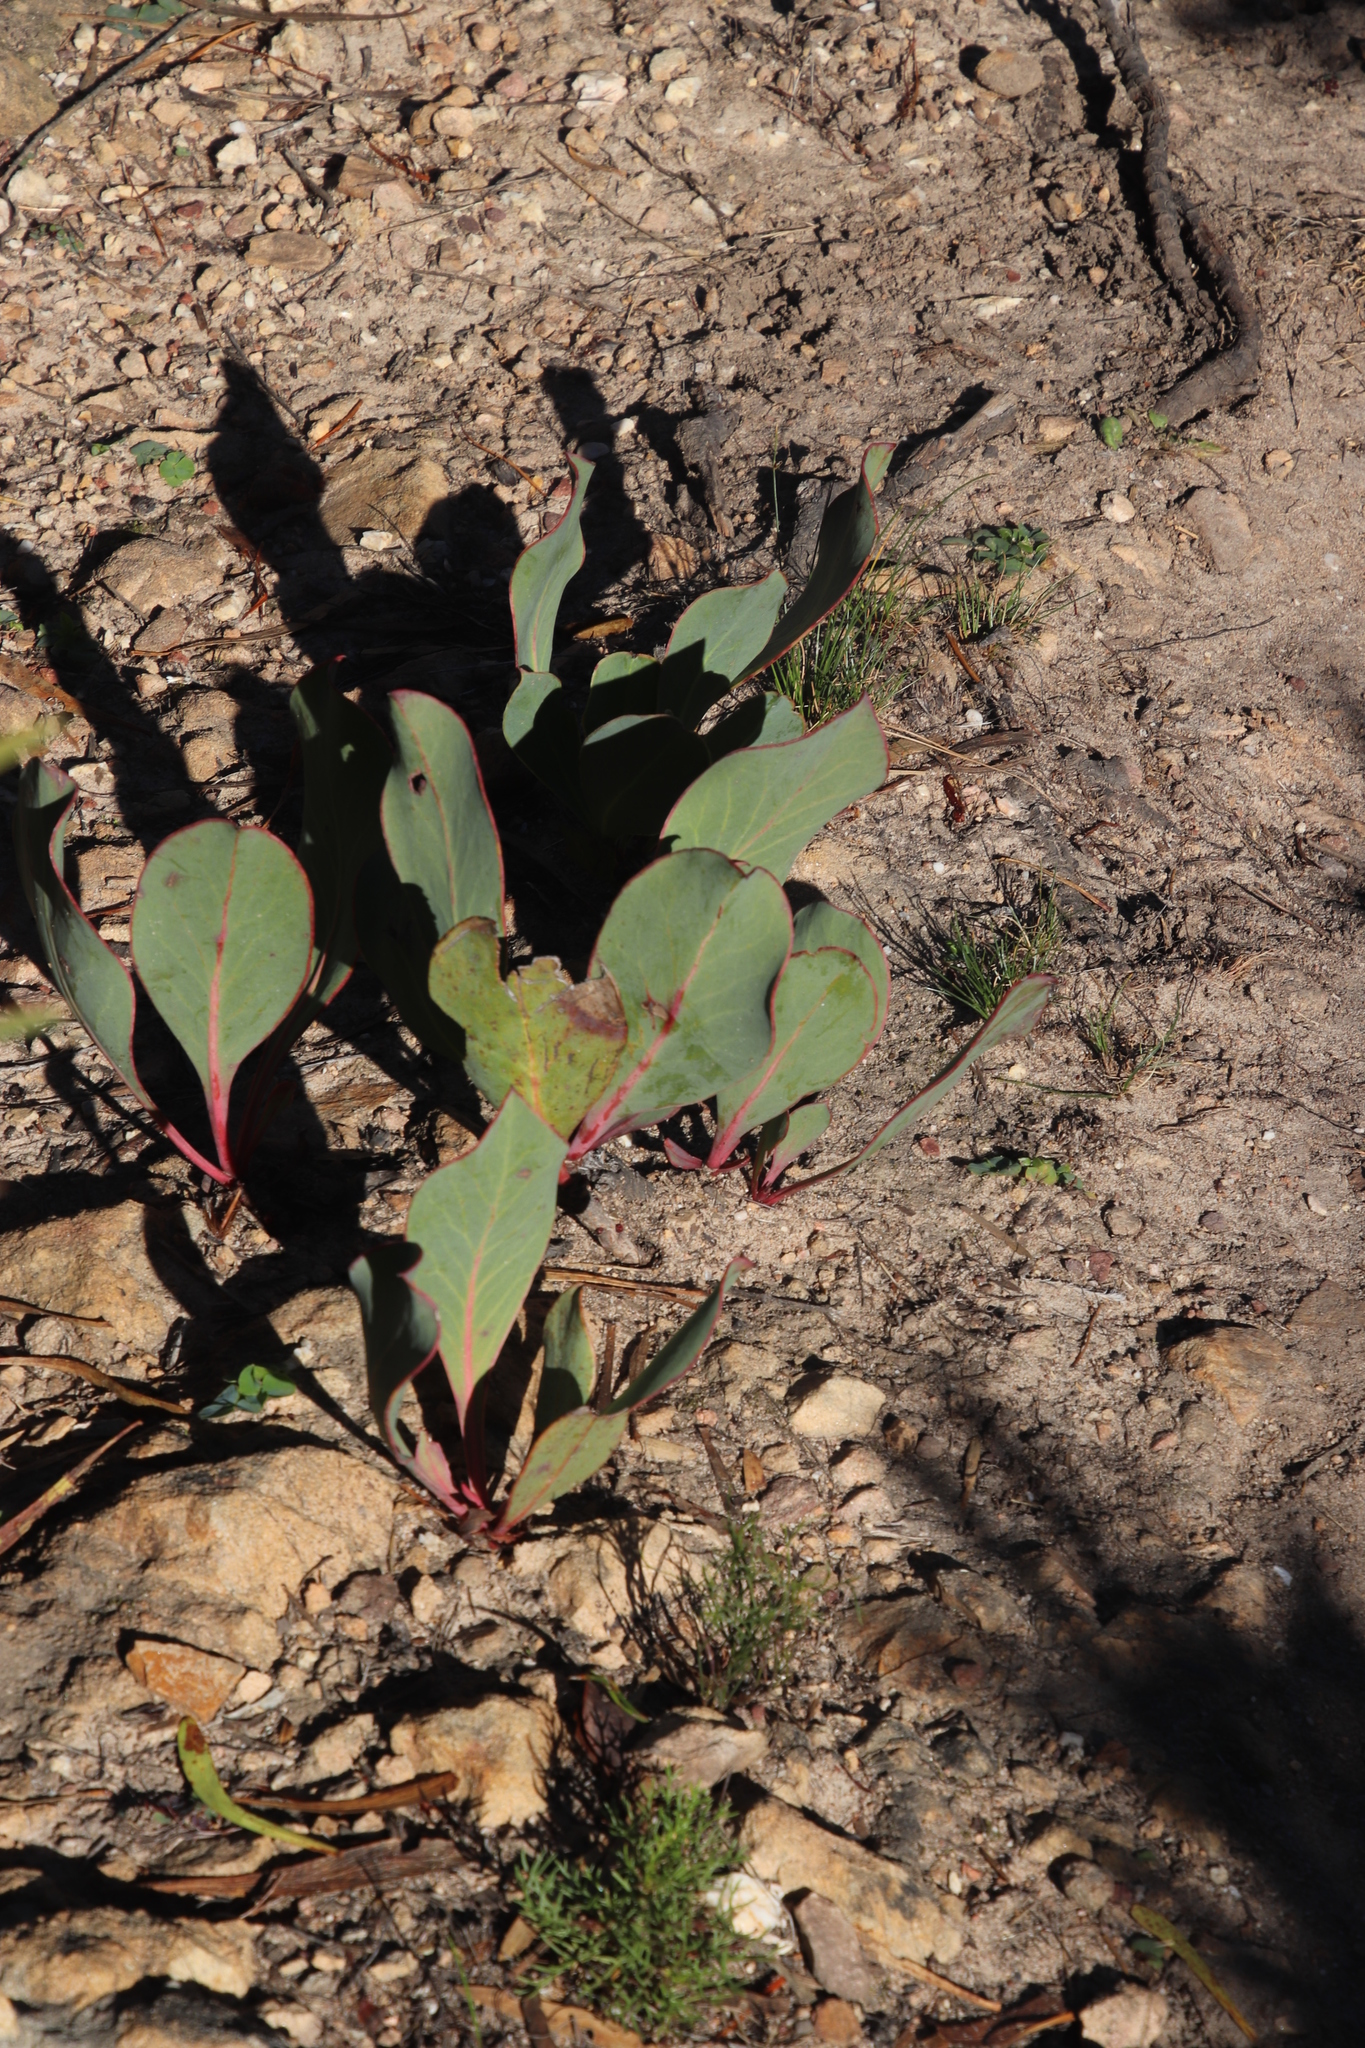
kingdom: Plantae
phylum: Tracheophyta
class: Magnoliopsida
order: Proteales
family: Proteaceae
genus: Protea
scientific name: Protea acaulos
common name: Common ground sugarbush
